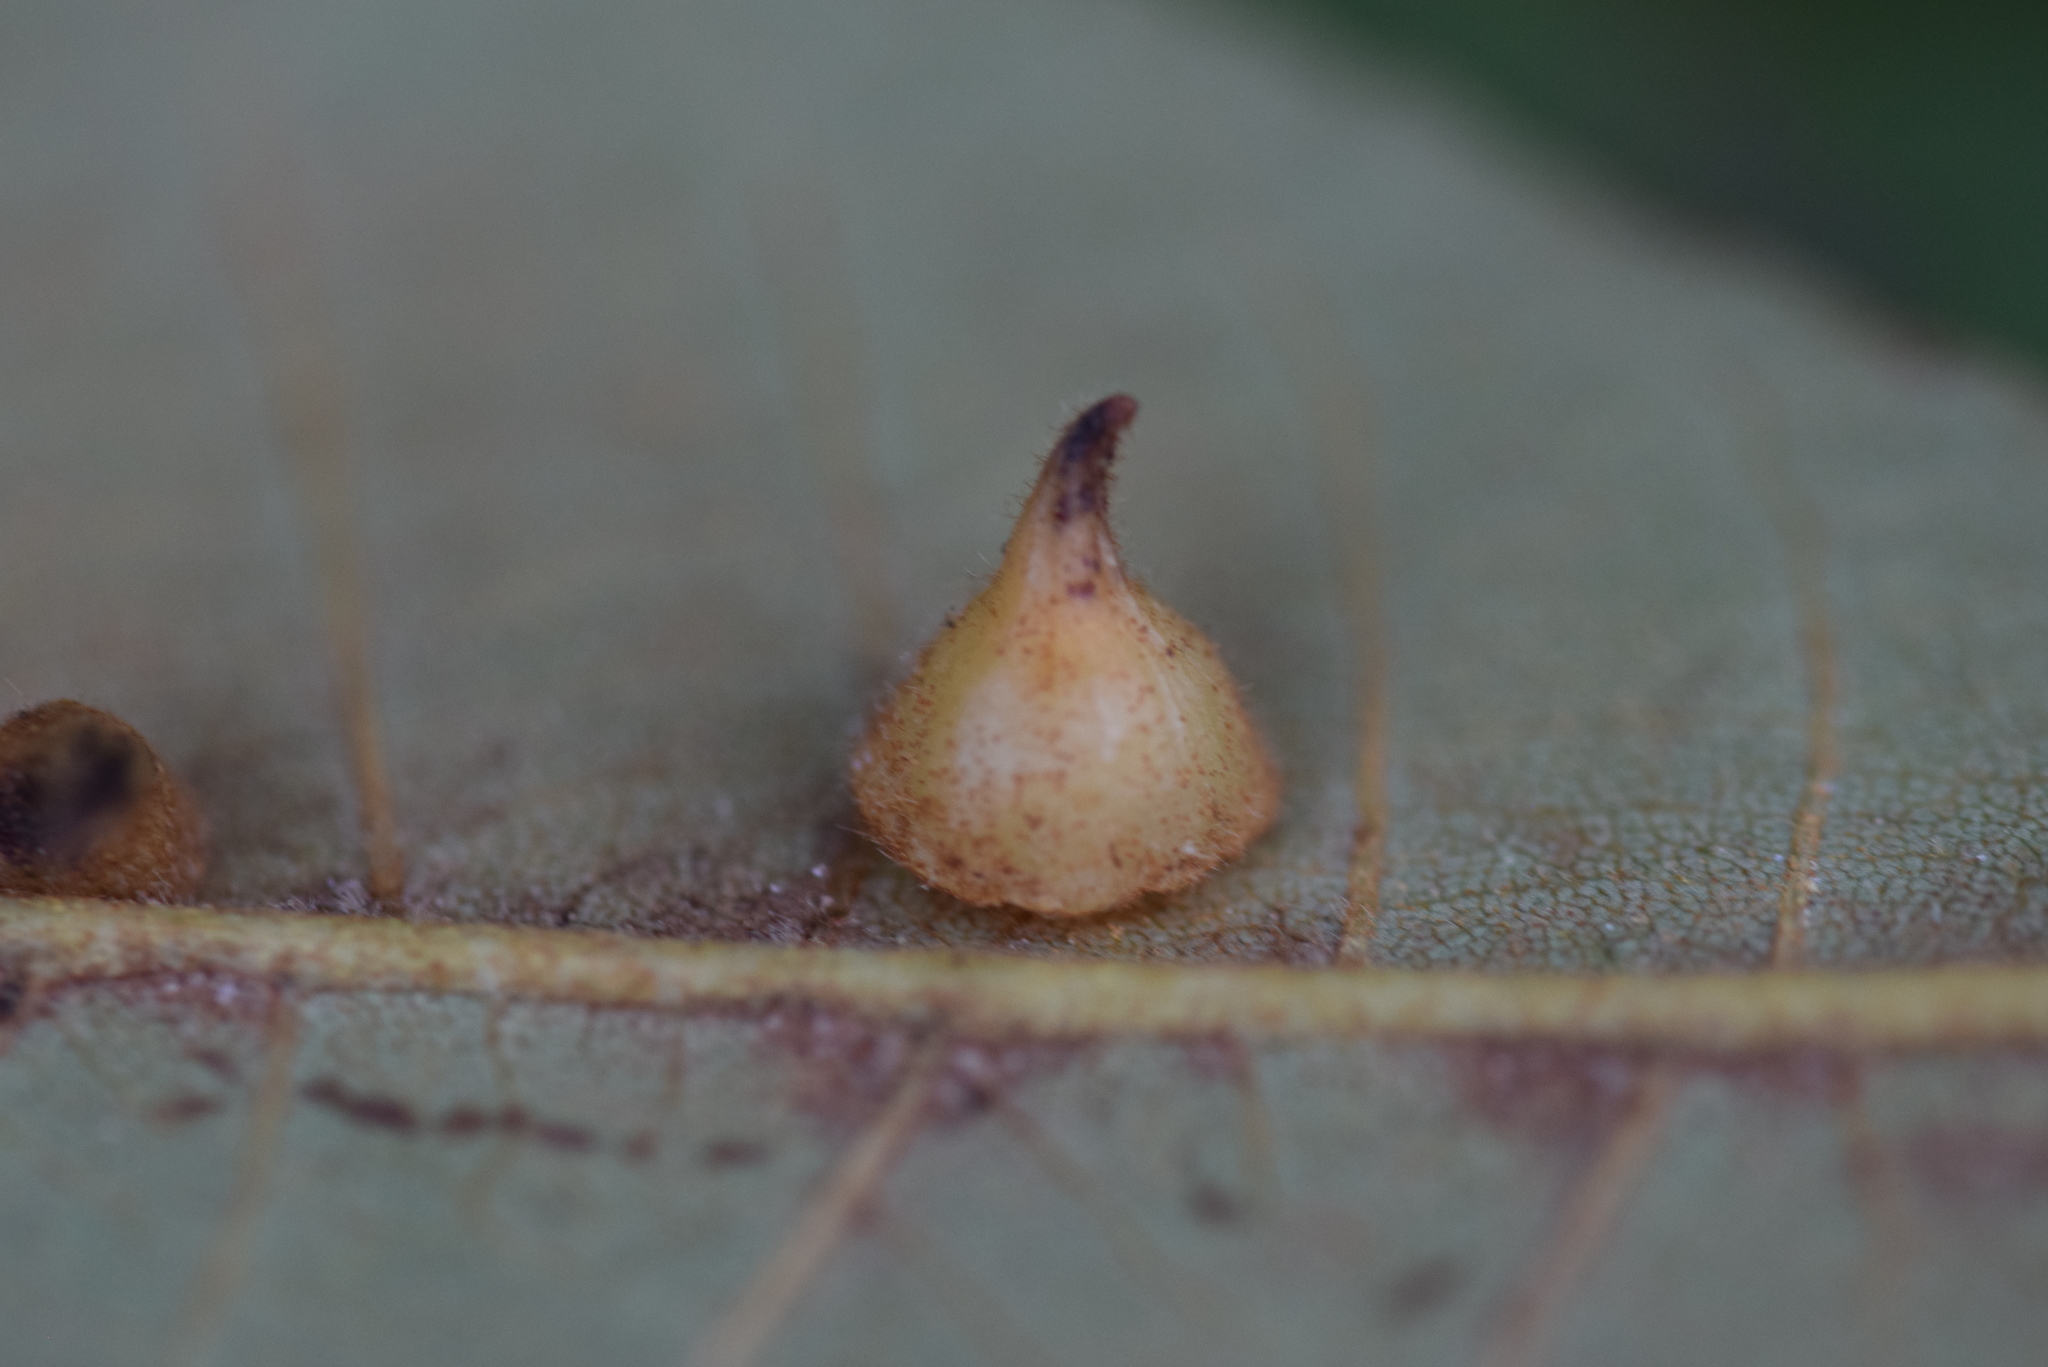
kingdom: Animalia
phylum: Arthropoda
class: Insecta
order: Diptera
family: Cecidomyiidae
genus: Caryomyia
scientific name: Caryomyia marginata
